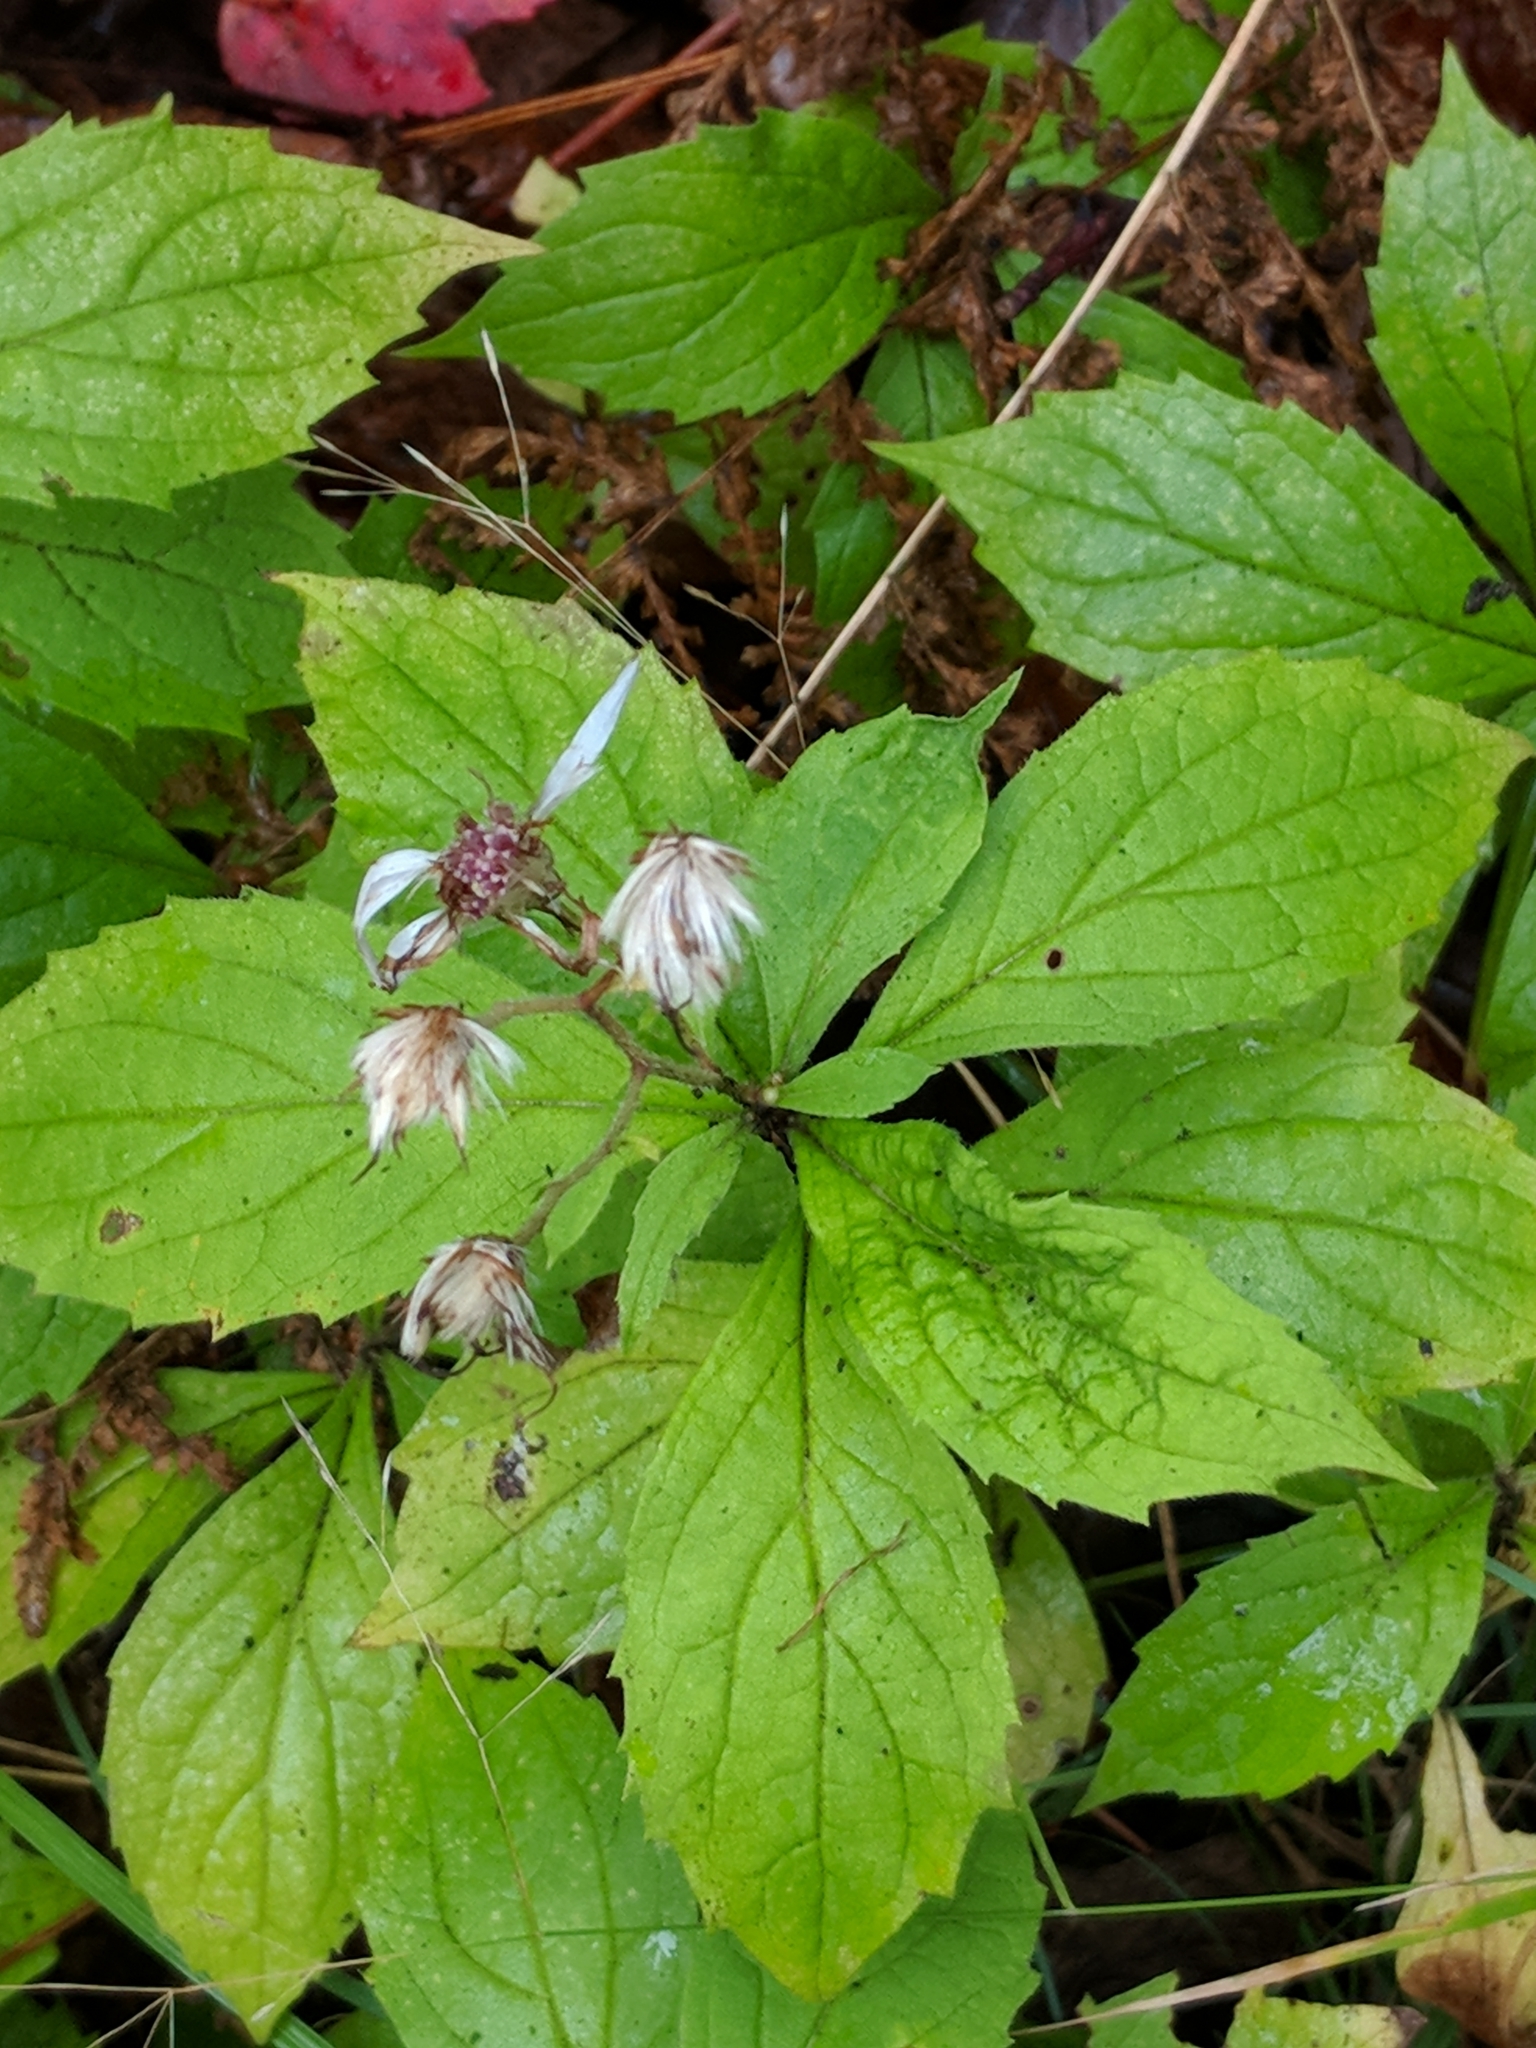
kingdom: Plantae
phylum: Tracheophyta
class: Magnoliopsida
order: Asterales
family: Asteraceae
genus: Oclemena
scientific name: Oclemena acuminata
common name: Mountain aster
